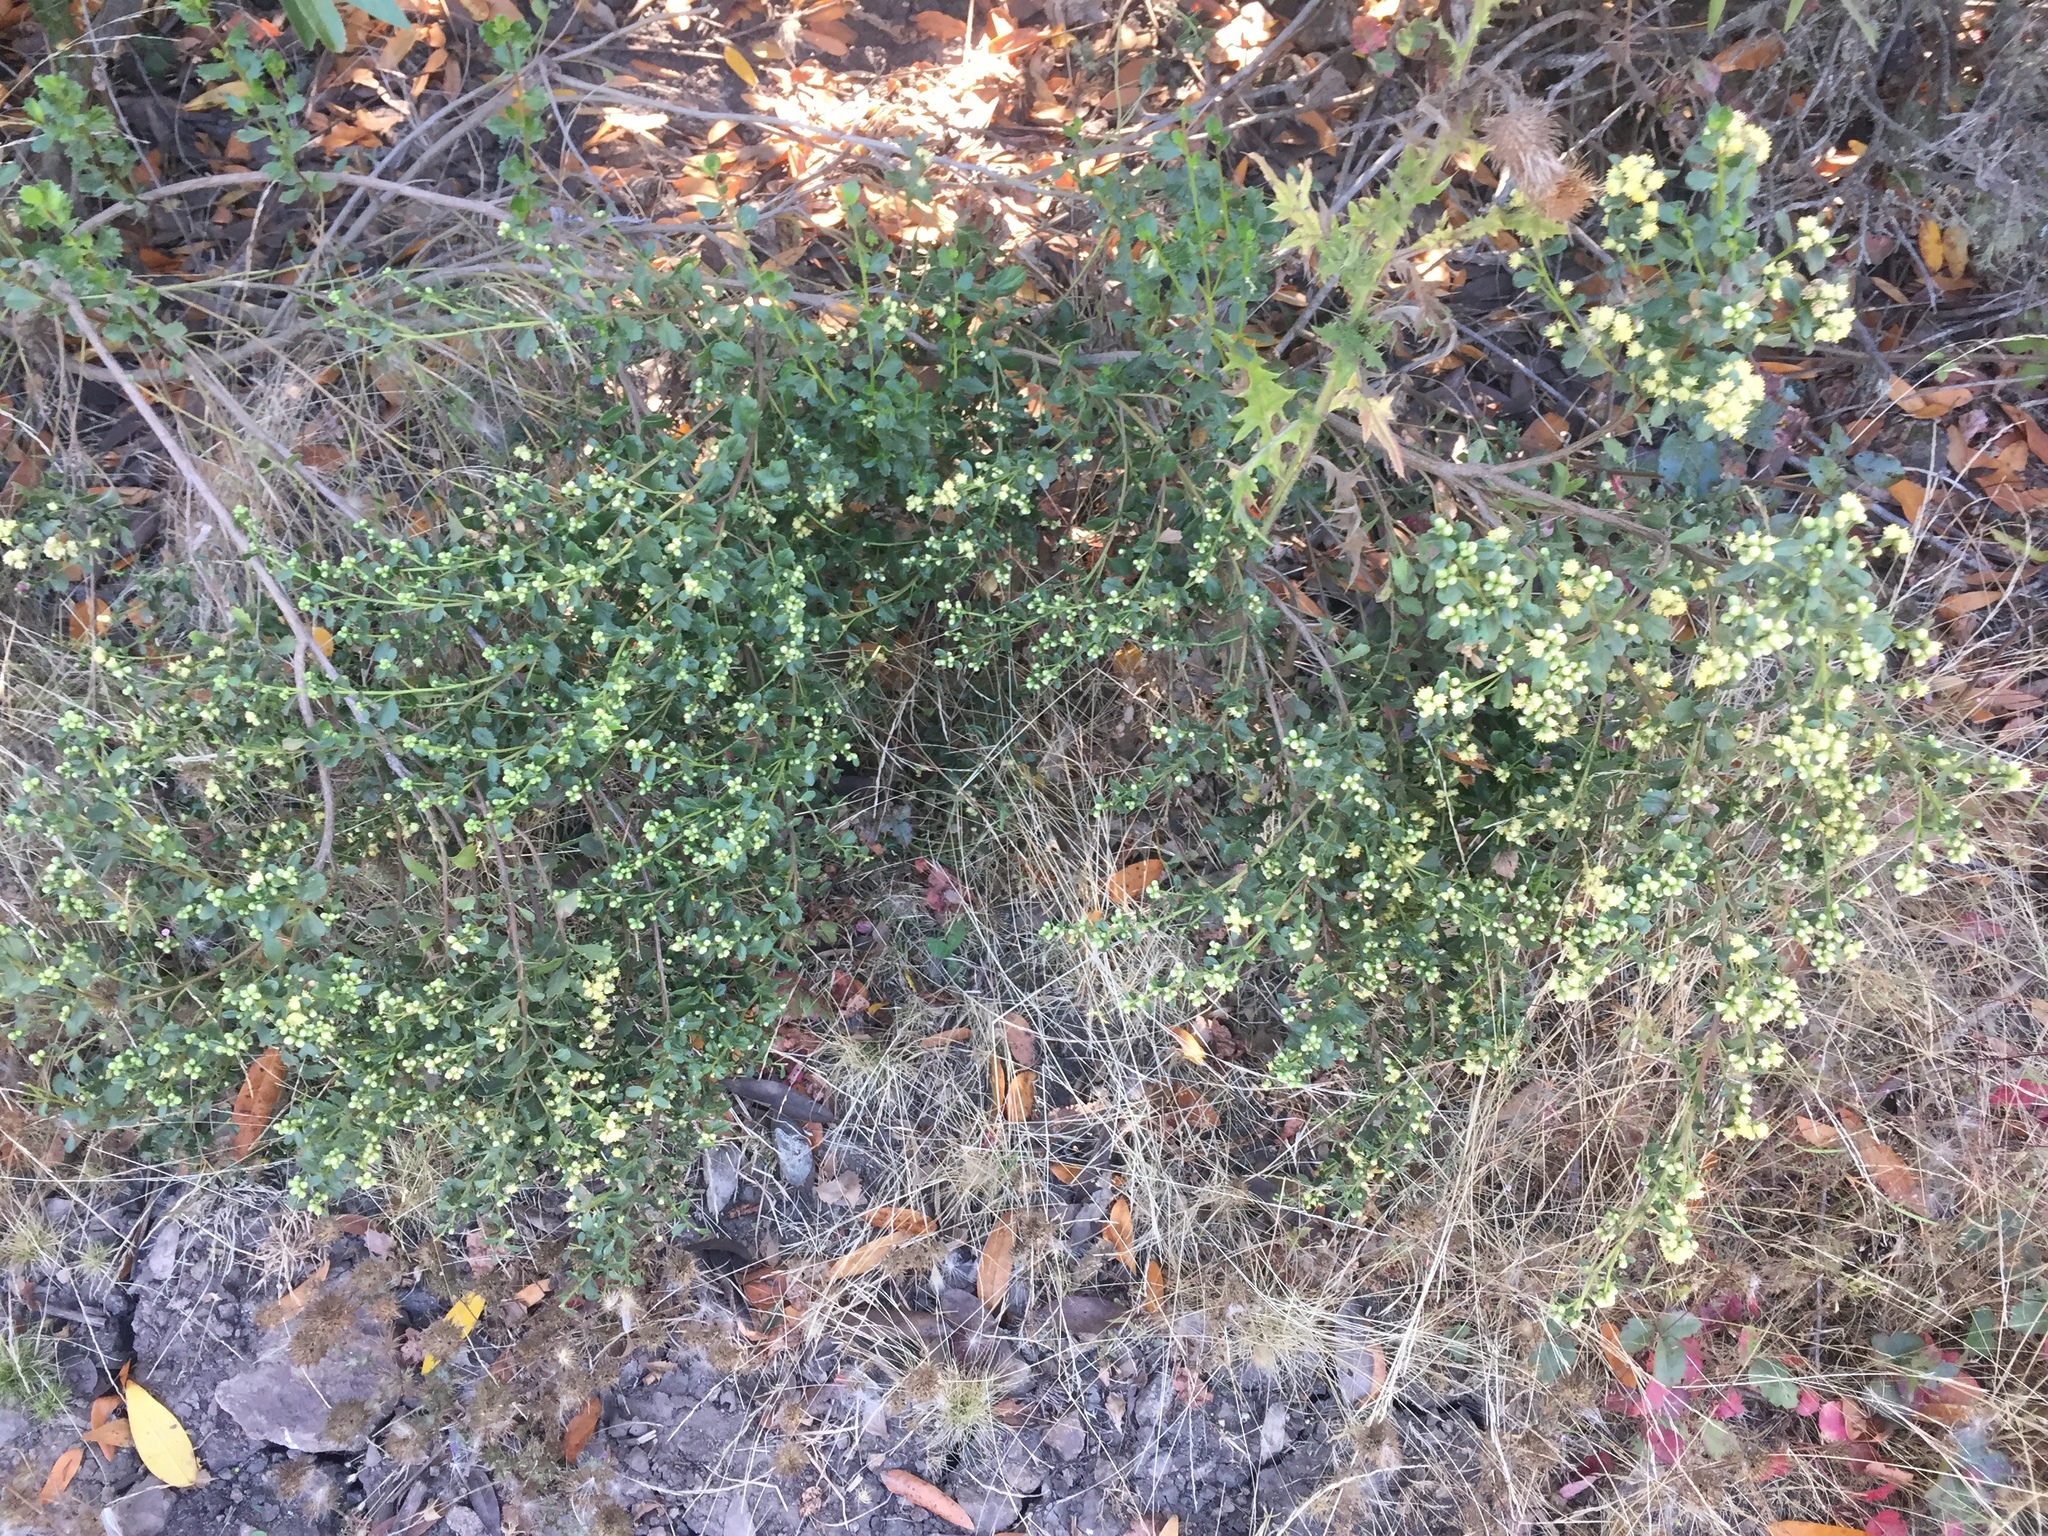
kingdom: Plantae
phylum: Tracheophyta
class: Magnoliopsida
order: Asterales
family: Asteraceae
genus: Baccharis
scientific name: Baccharis pilularis
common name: Coyotebrush
